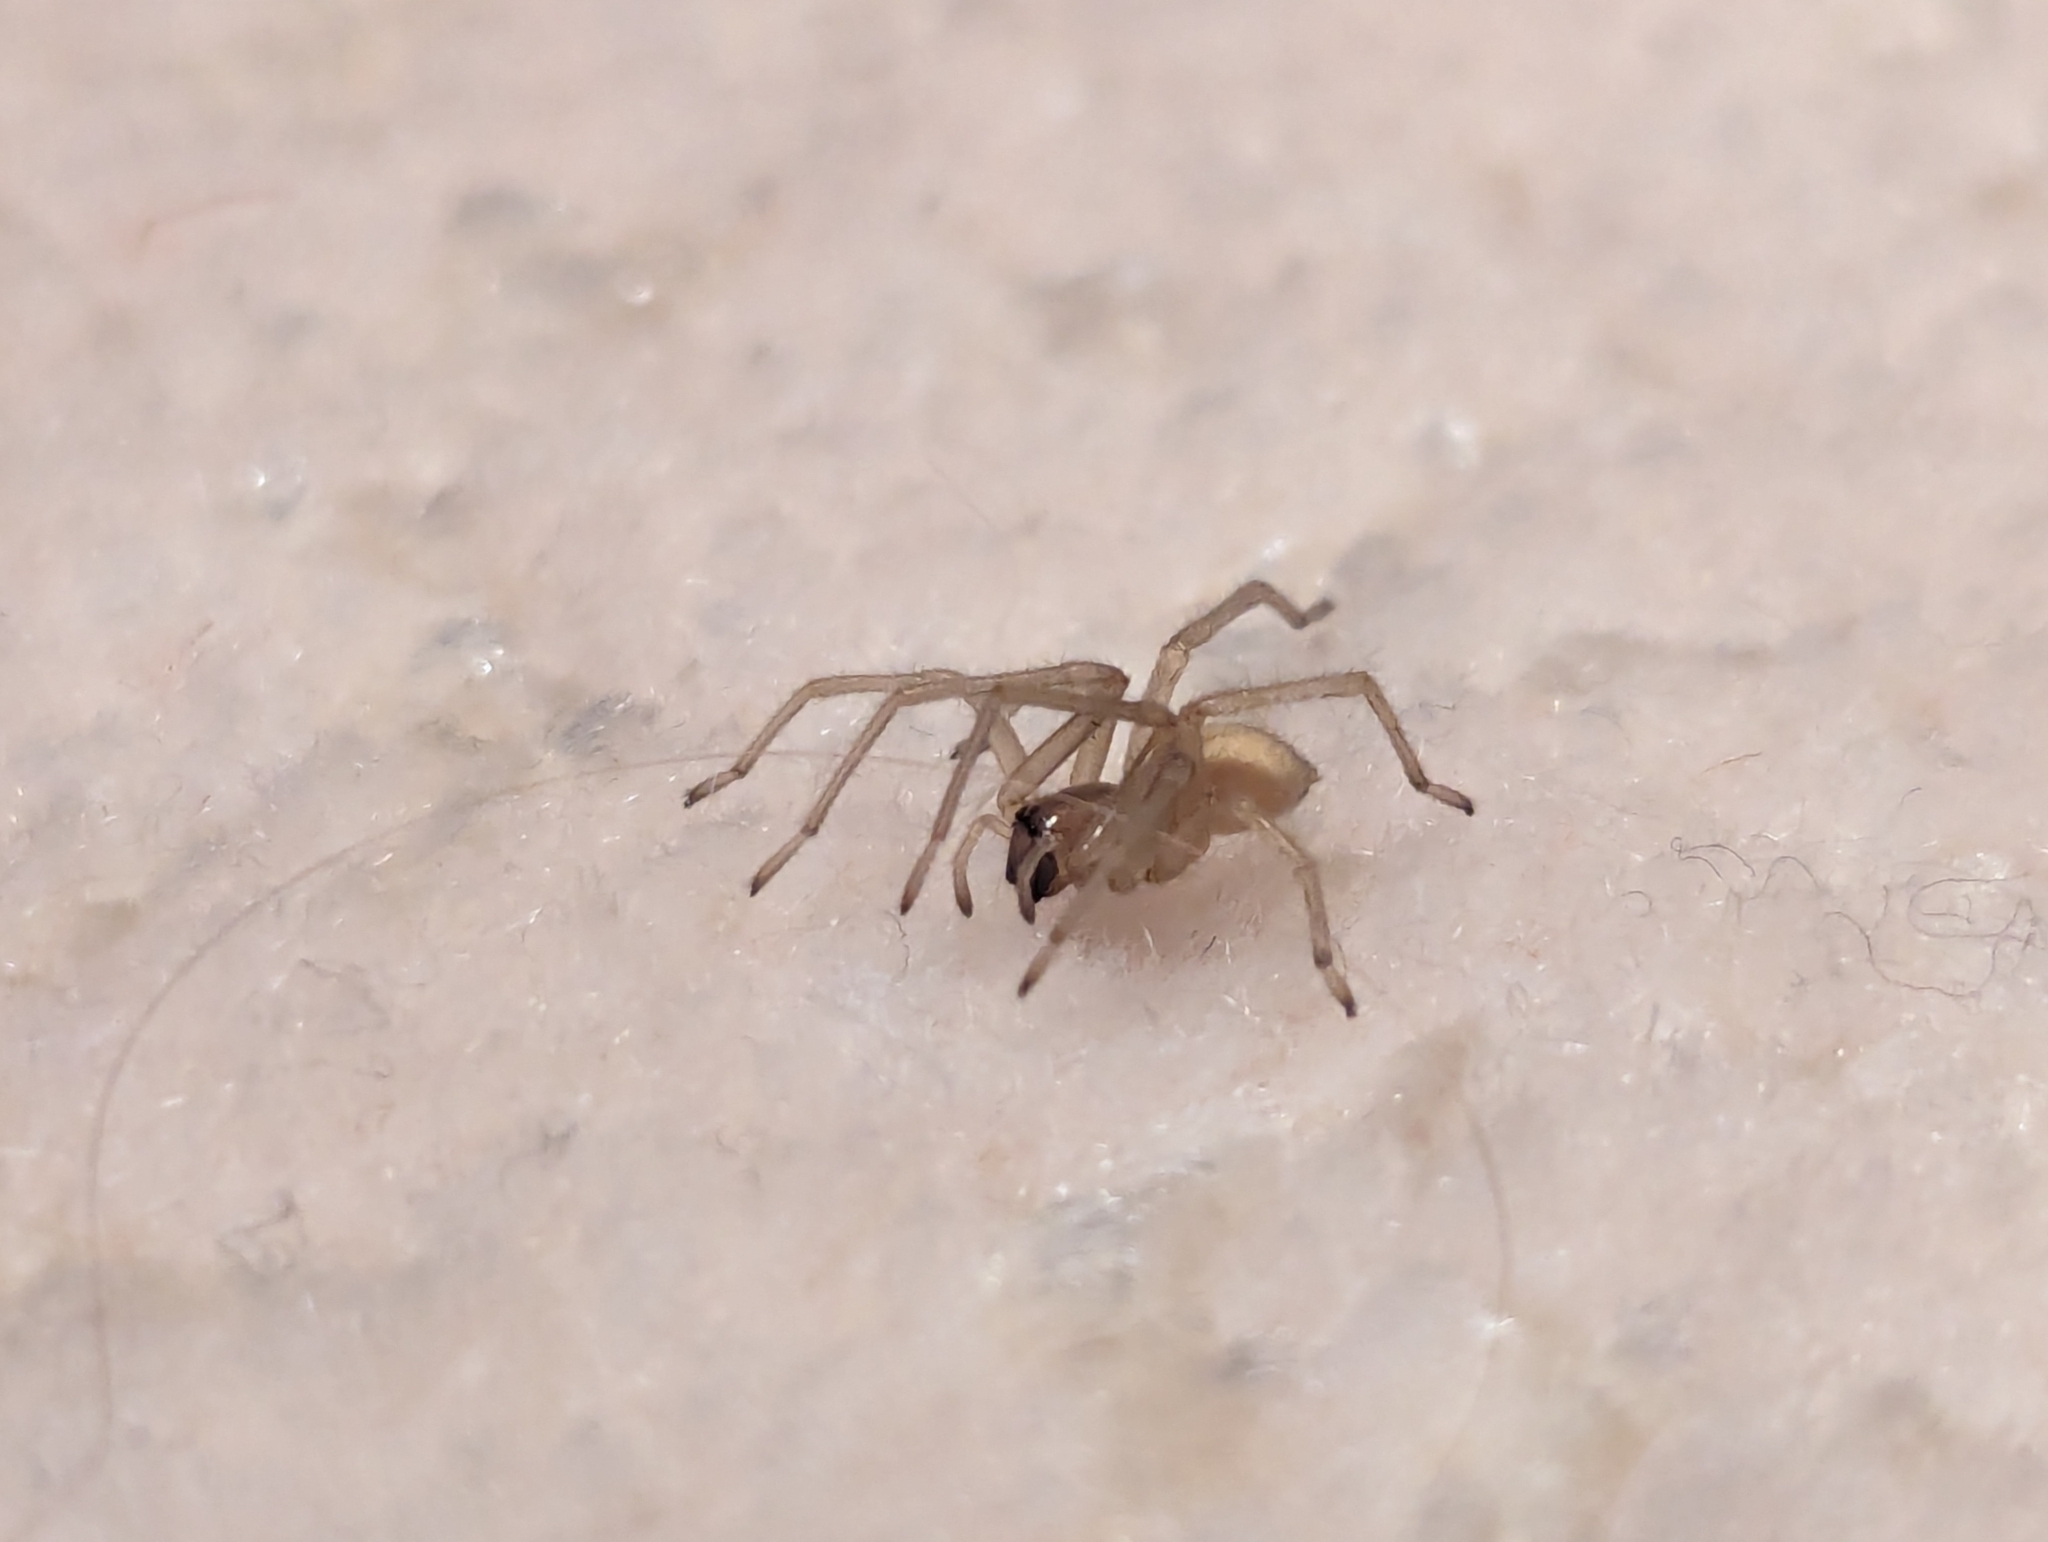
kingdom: Animalia
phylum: Arthropoda
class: Arachnida
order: Araneae
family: Cheiracanthiidae
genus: Cheiracanthium
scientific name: Cheiracanthium mildei
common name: Northern yellow sac spider
